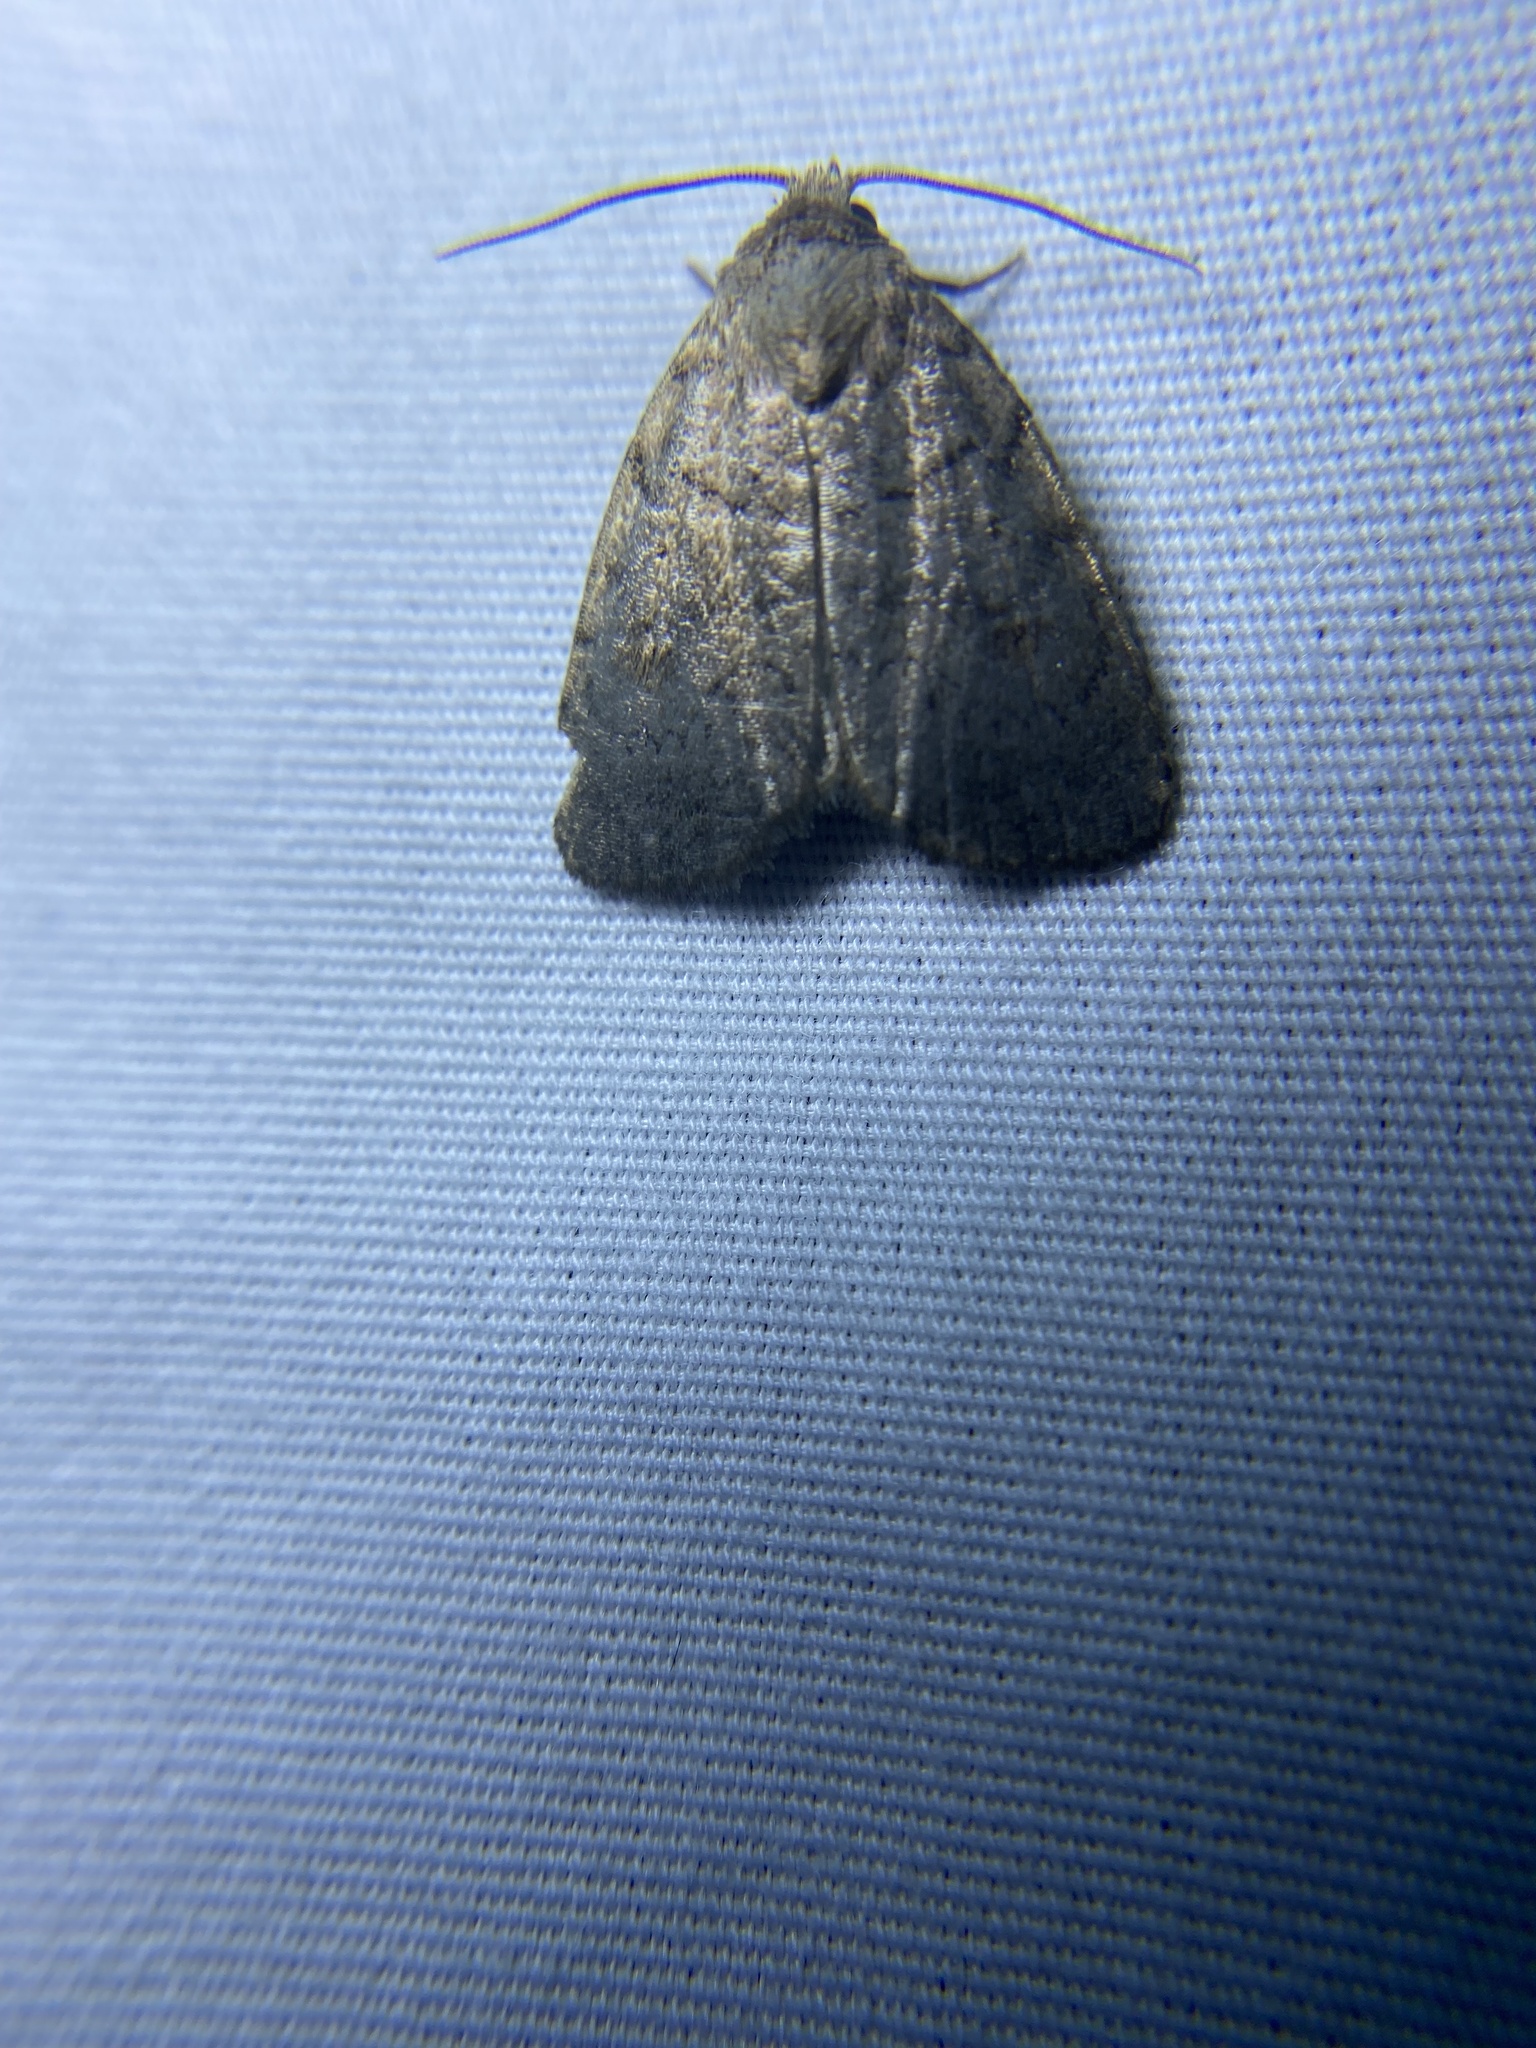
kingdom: Animalia
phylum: Arthropoda
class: Insecta
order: Lepidoptera
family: Noctuidae
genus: Athetis
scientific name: Athetis tarda
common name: Slowpoke moth
